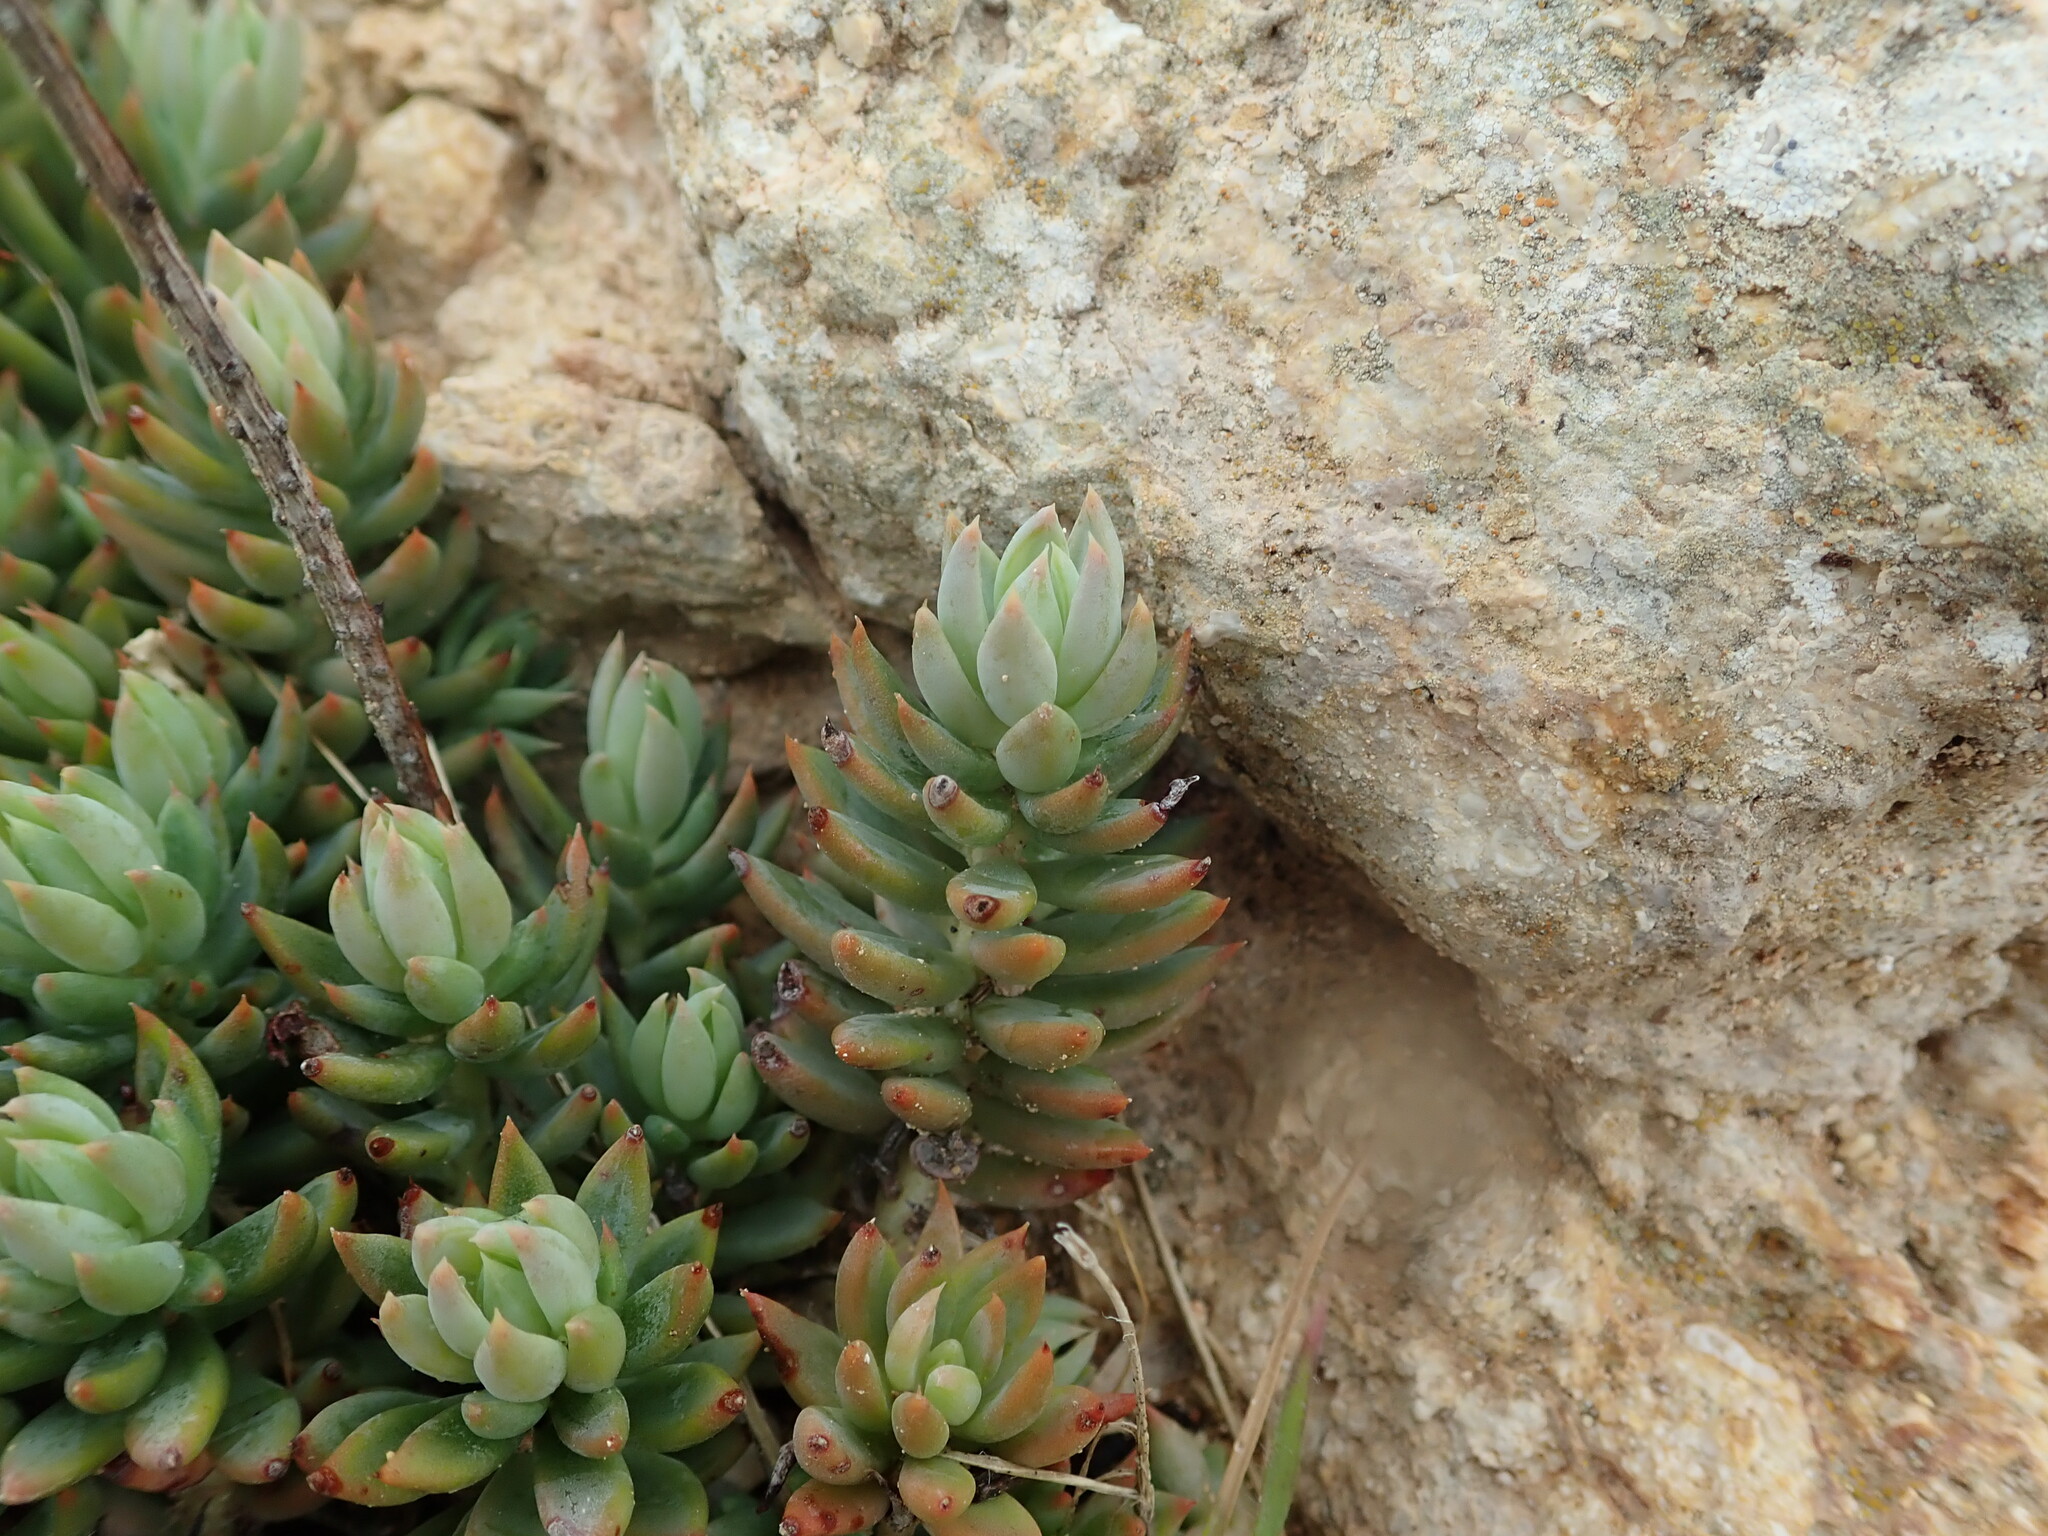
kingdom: Plantae
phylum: Tracheophyta
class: Magnoliopsida
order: Saxifragales
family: Crassulaceae
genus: Petrosedum
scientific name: Petrosedum sediforme
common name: Pale stonecrop
